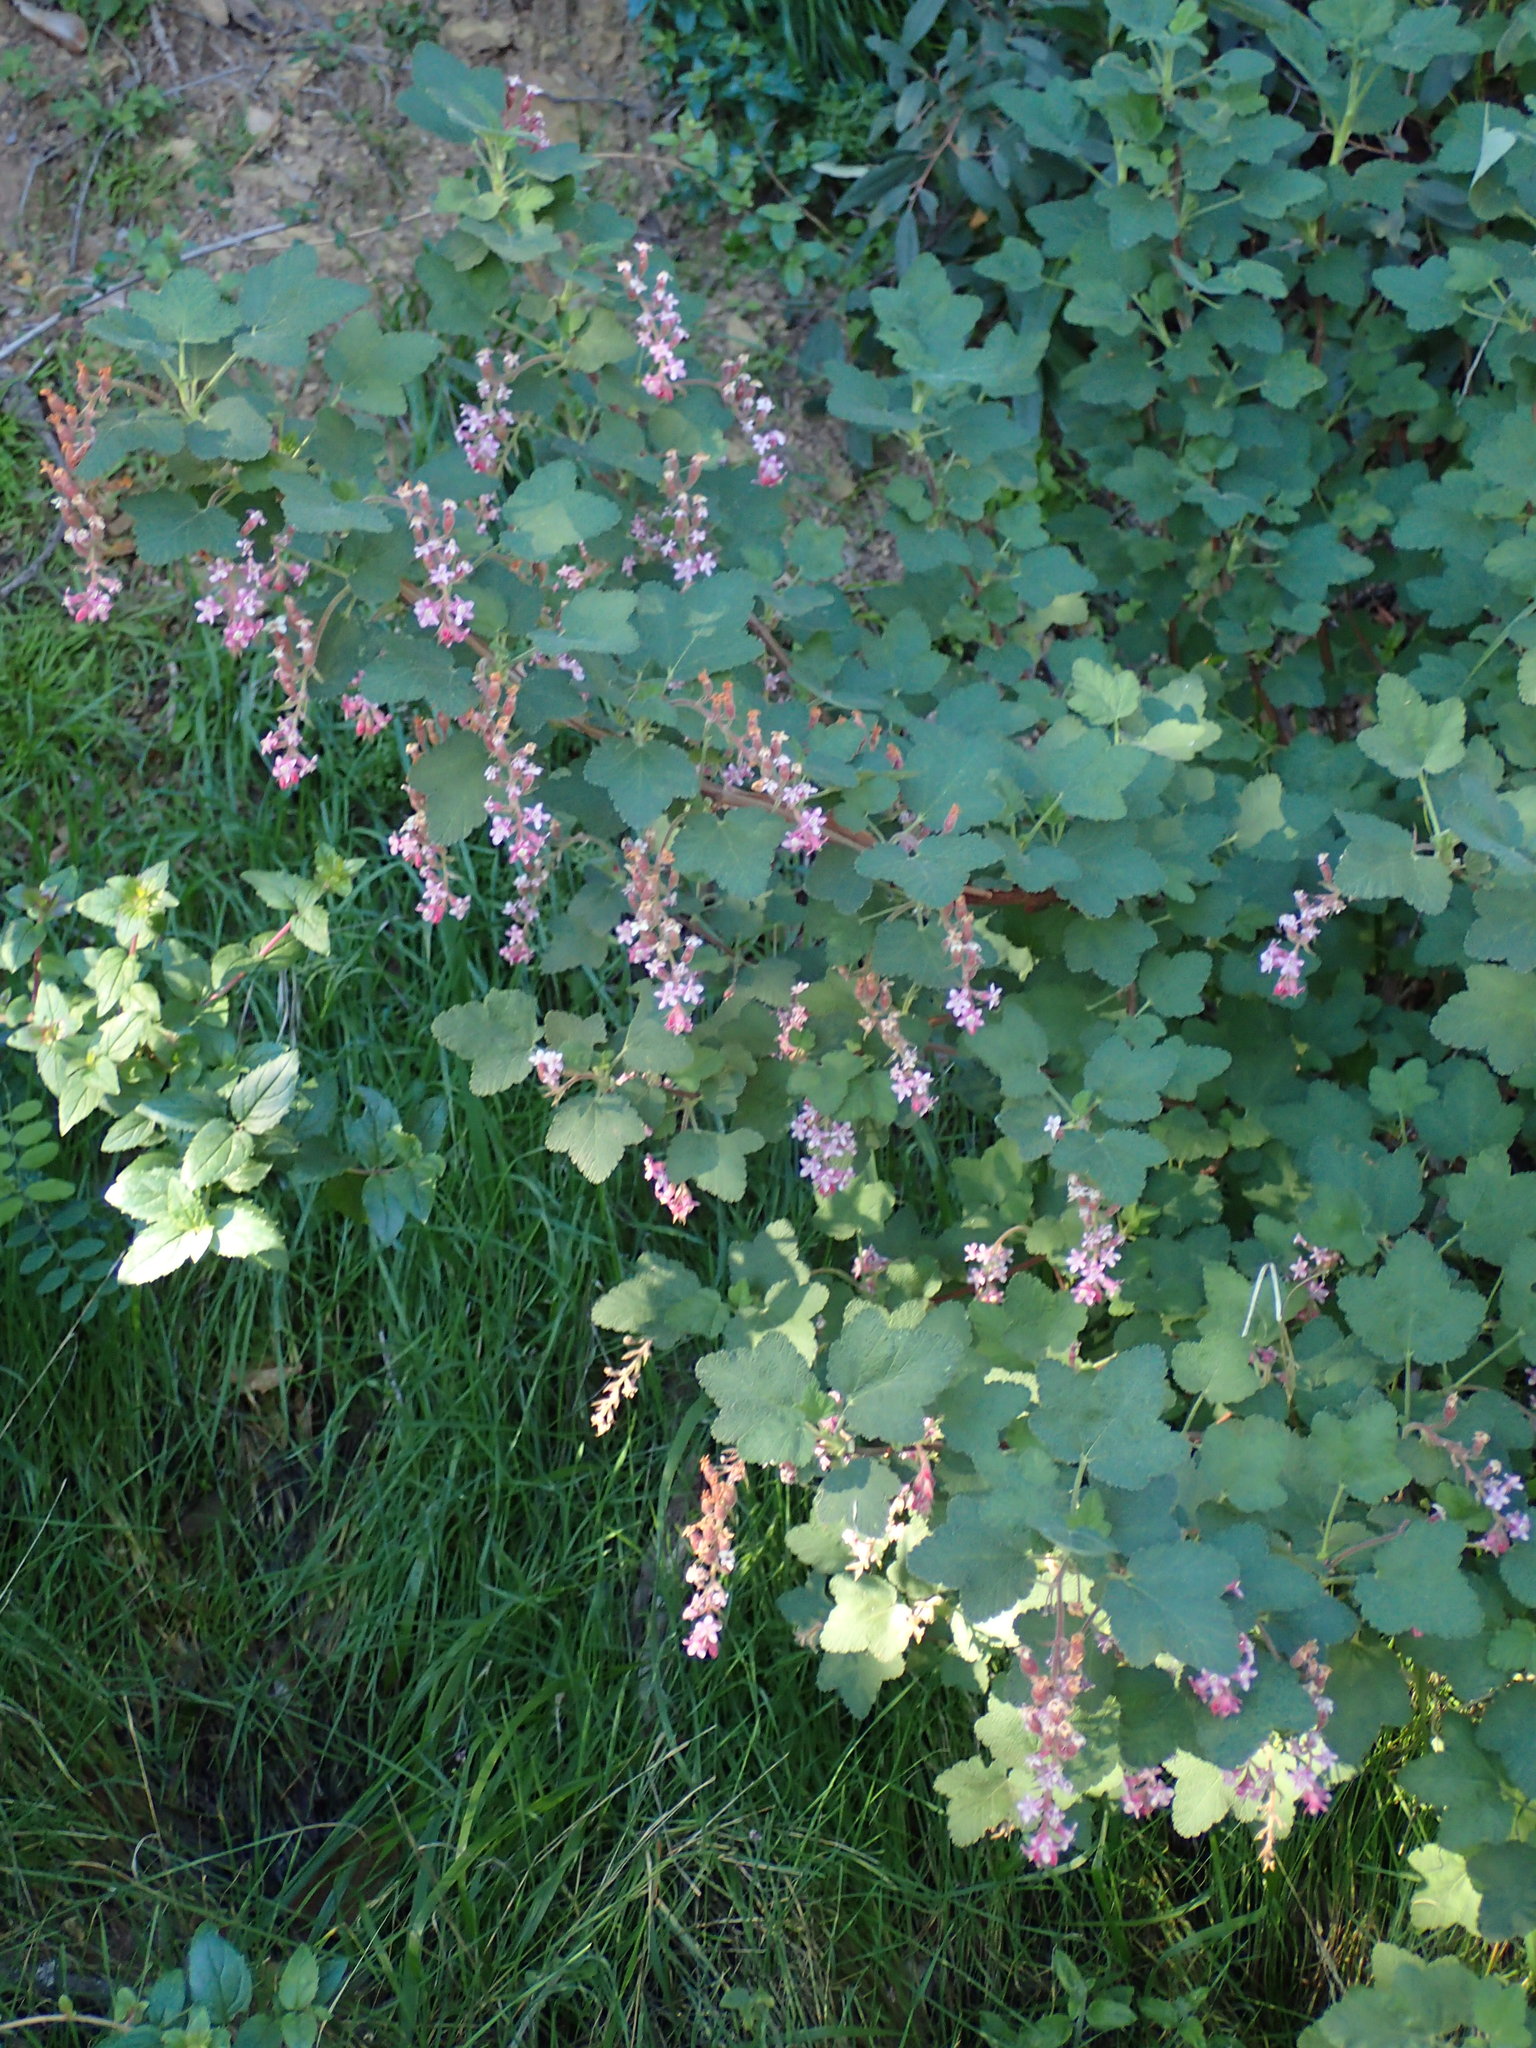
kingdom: Plantae
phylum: Tracheophyta
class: Magnoliopsida
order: Saxifragales
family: Grossulariaceae
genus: Ribes
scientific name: Ribes malvaceum
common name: Chaparral currant
